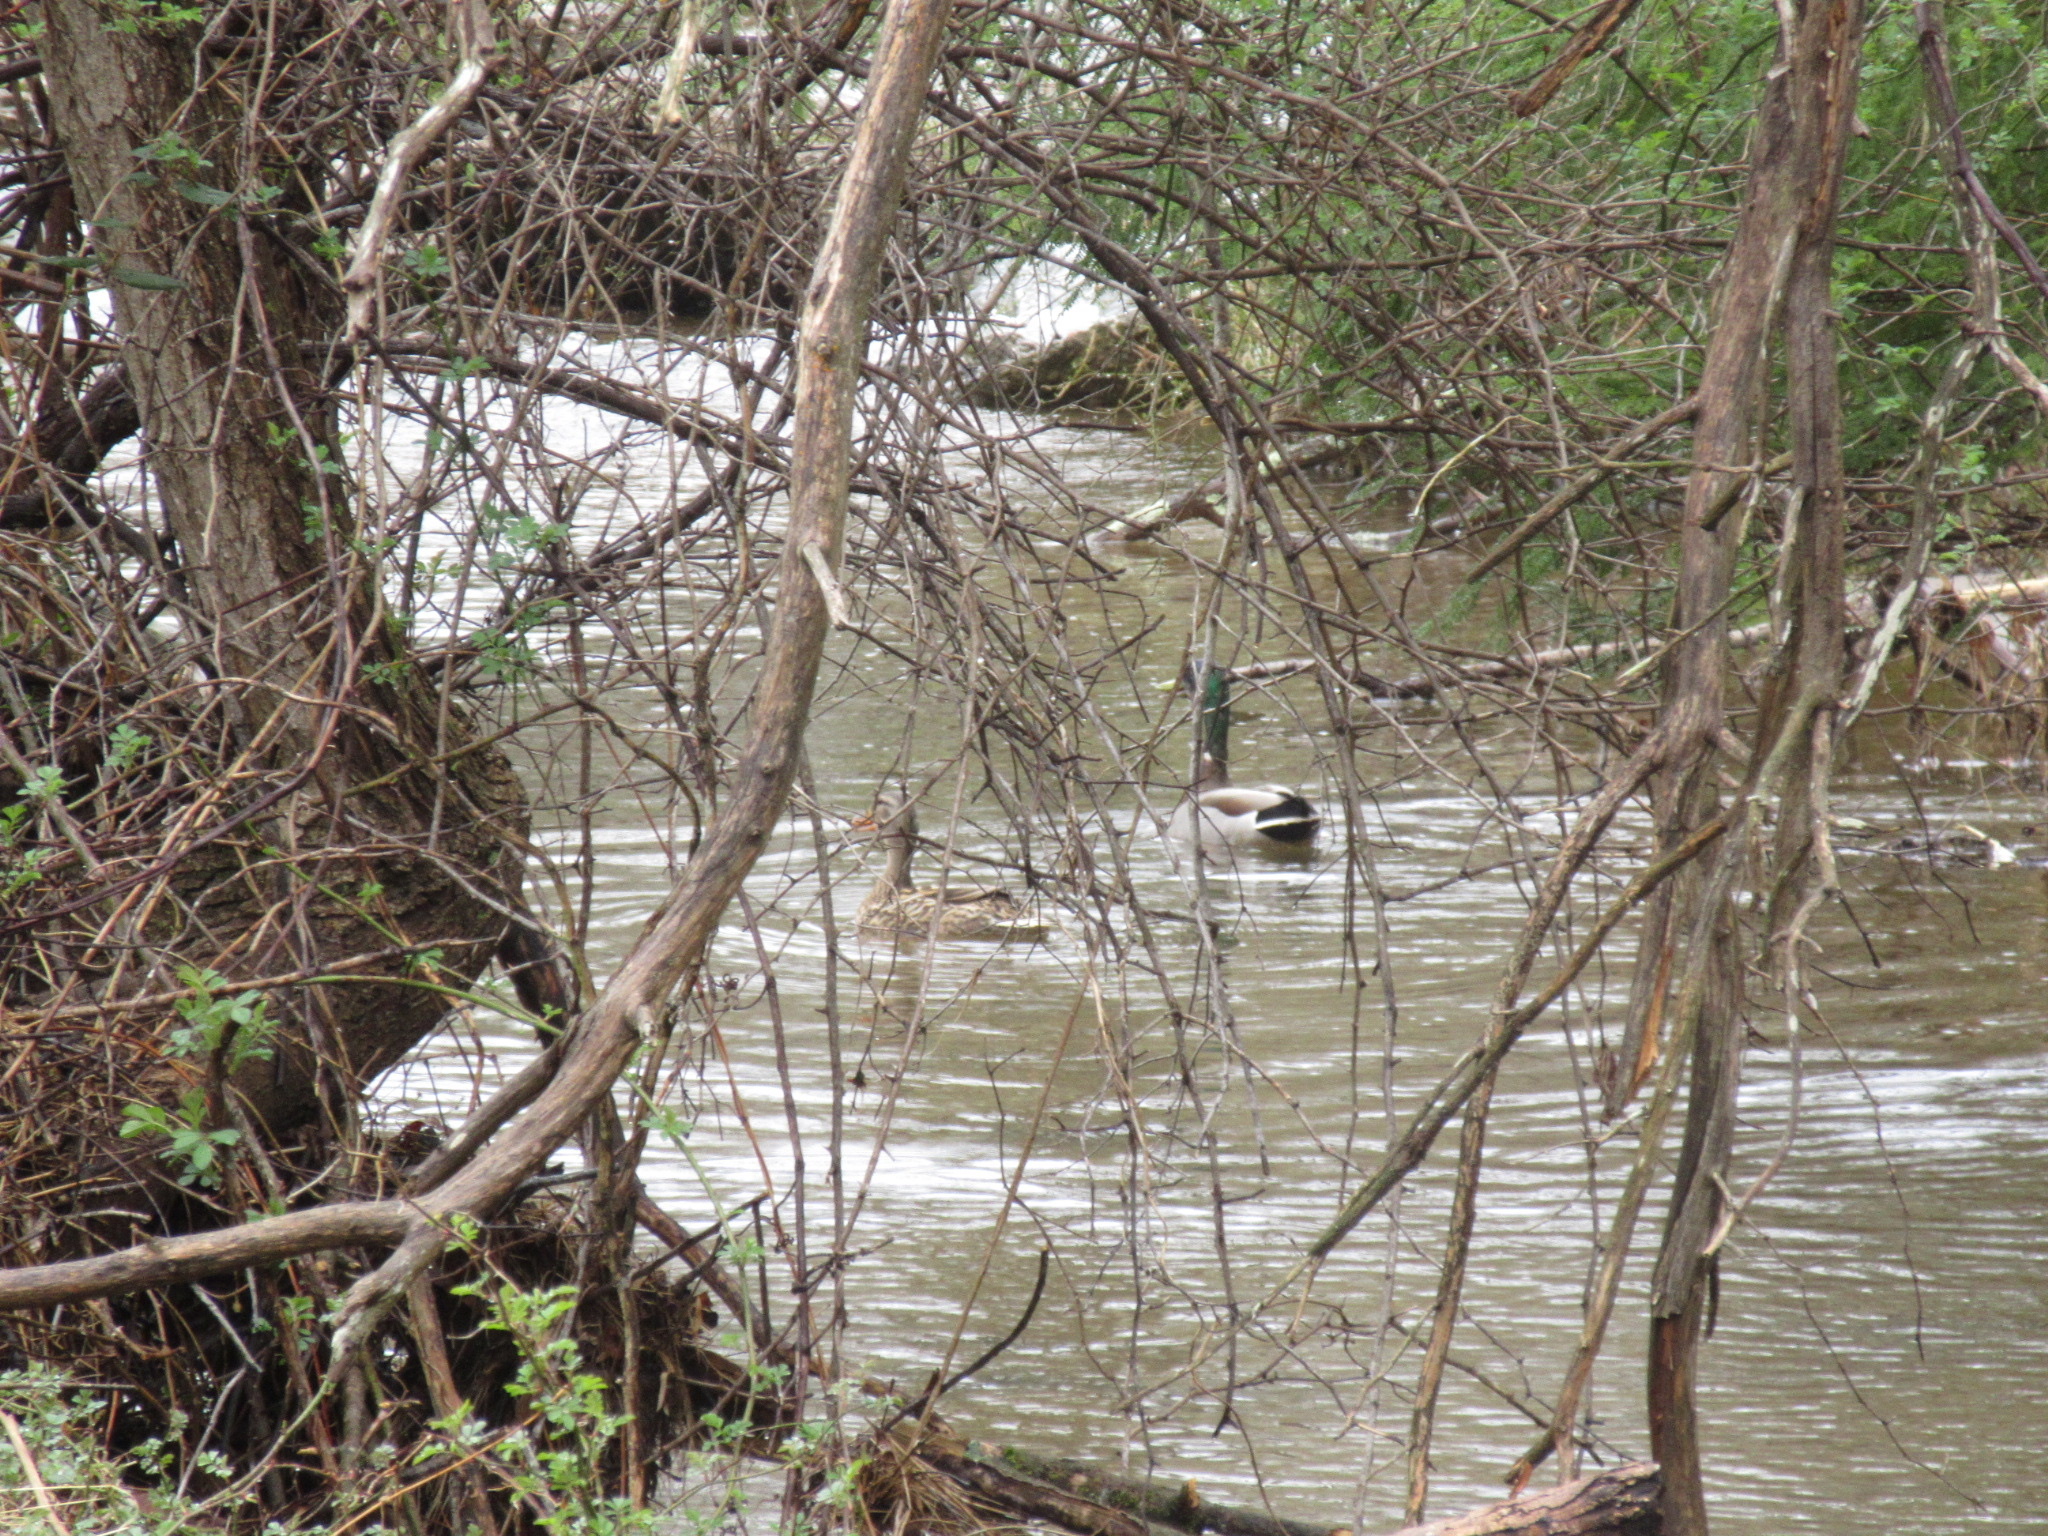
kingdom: Animalia
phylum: Chordata
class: Aves
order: Anseriformes
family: Anatidae
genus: Anas
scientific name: Anas platyrhynchos
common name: Mallard
